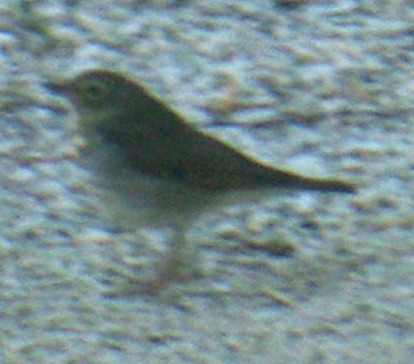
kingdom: Animalia
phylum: Chordata
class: Aves
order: Passeriformes
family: Turdidae
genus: Catharus
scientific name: Catharus ustulatus
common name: Swainson's thrush
